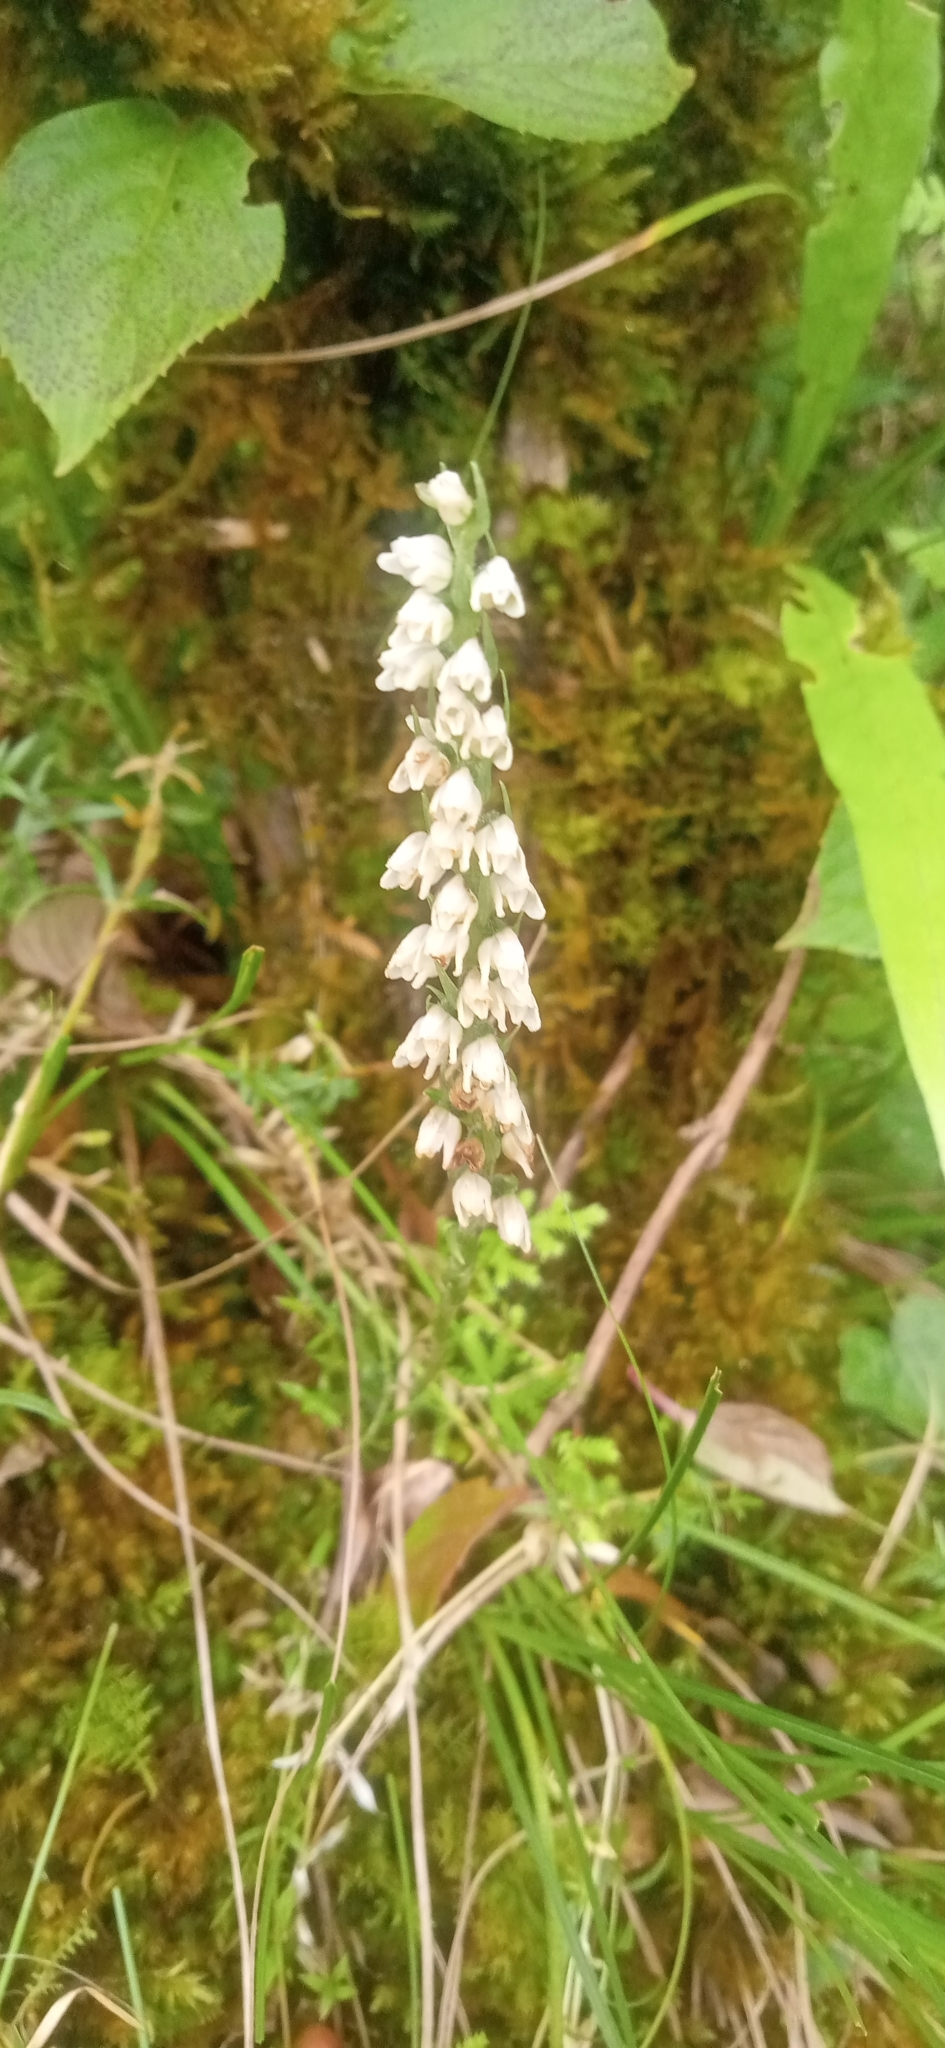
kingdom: Plantae
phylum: Tracheophyta
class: Liliopsida
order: Asparagales
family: Orchidaceae
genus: Goodyera
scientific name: Goodyera repens
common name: Creeping lady's-tresses
